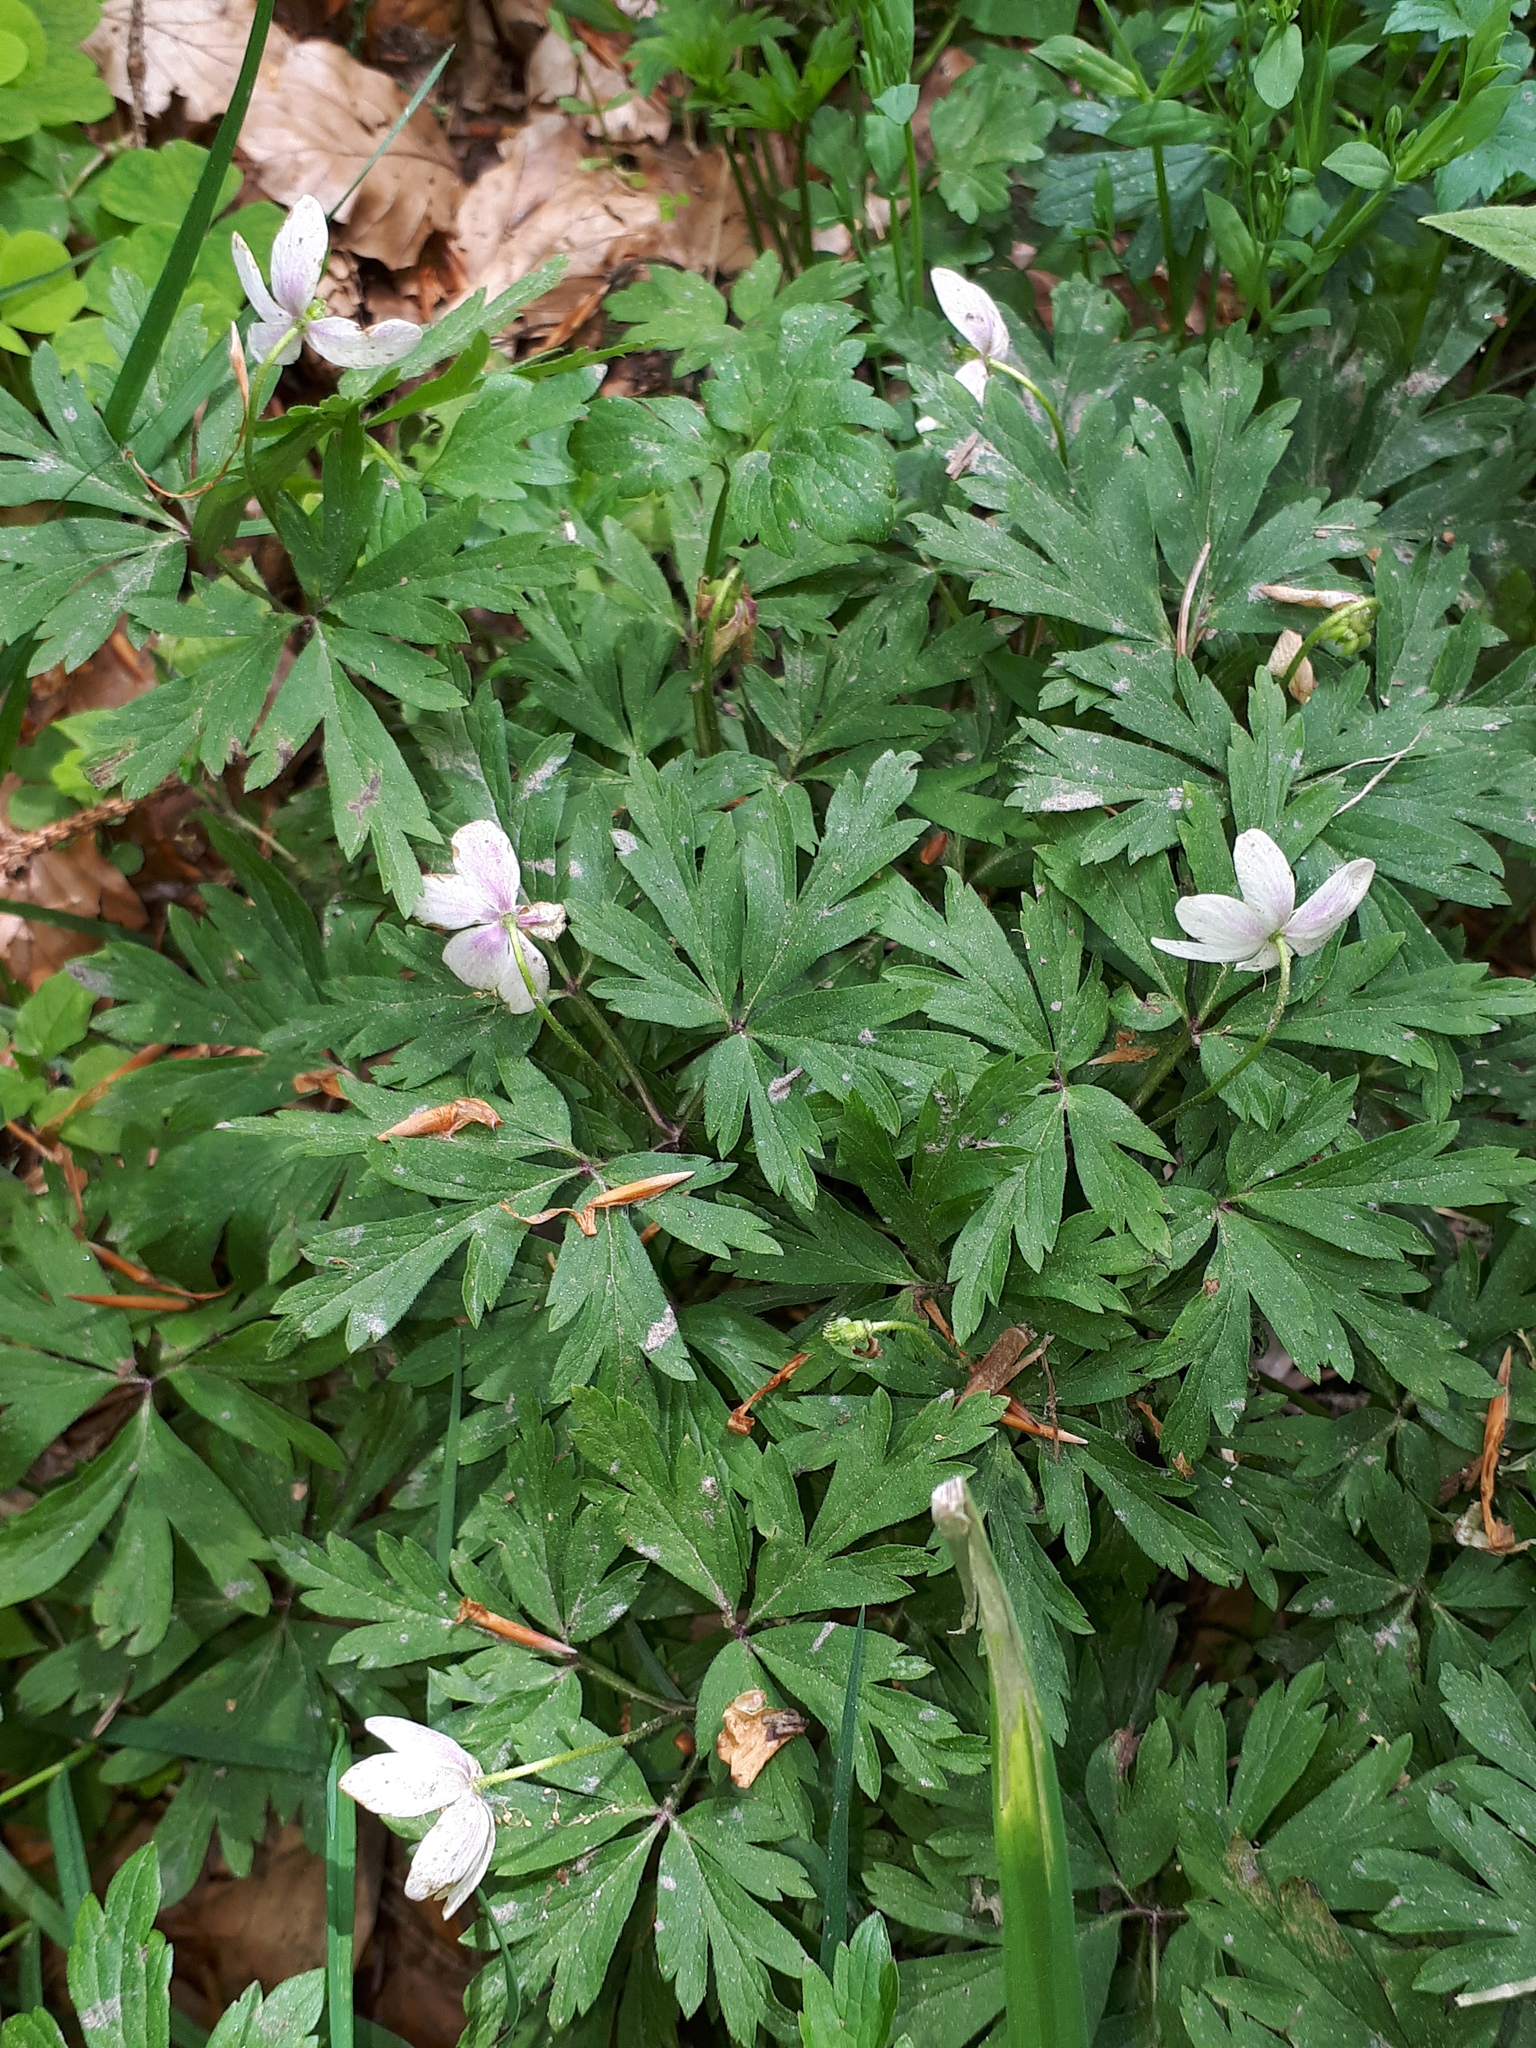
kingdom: Plantae
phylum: Tracheophyta
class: Magnoliopsida
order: Ranunculales
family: Ranunculaceae
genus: Anemone
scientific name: Anemone nemorosa
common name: Wood anemone
